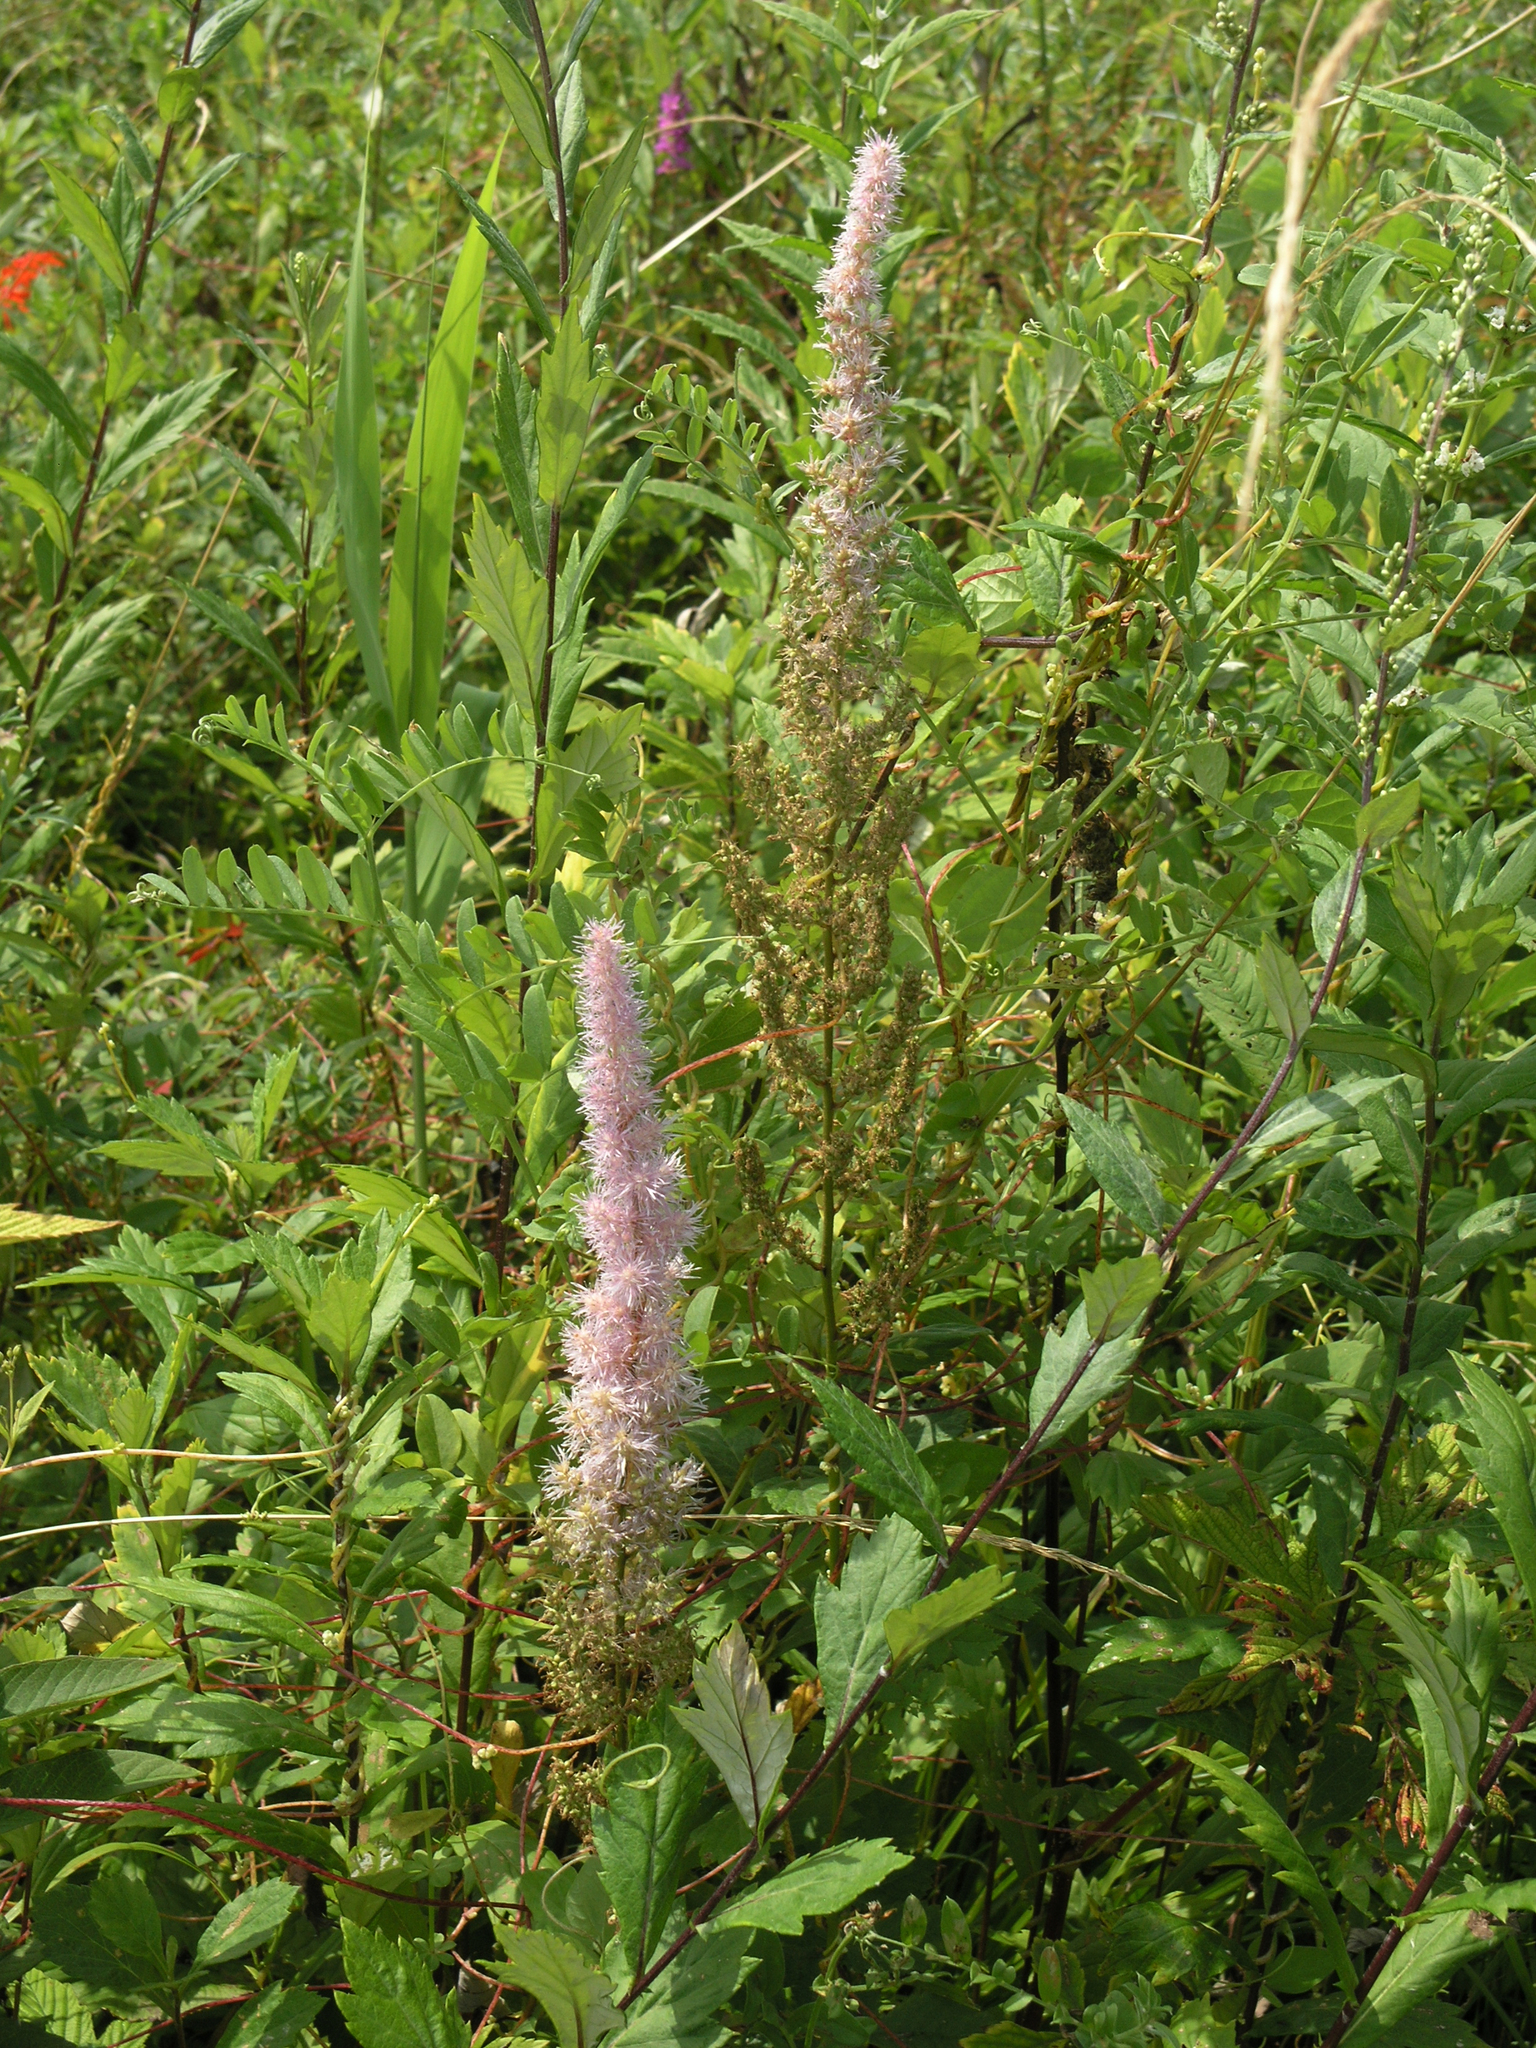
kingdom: Plantae
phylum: Tracheophyta
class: Magnoliopsida
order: Saxifragales
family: Saxifragaceae
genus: Astilbe
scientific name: Astilbe rubra
